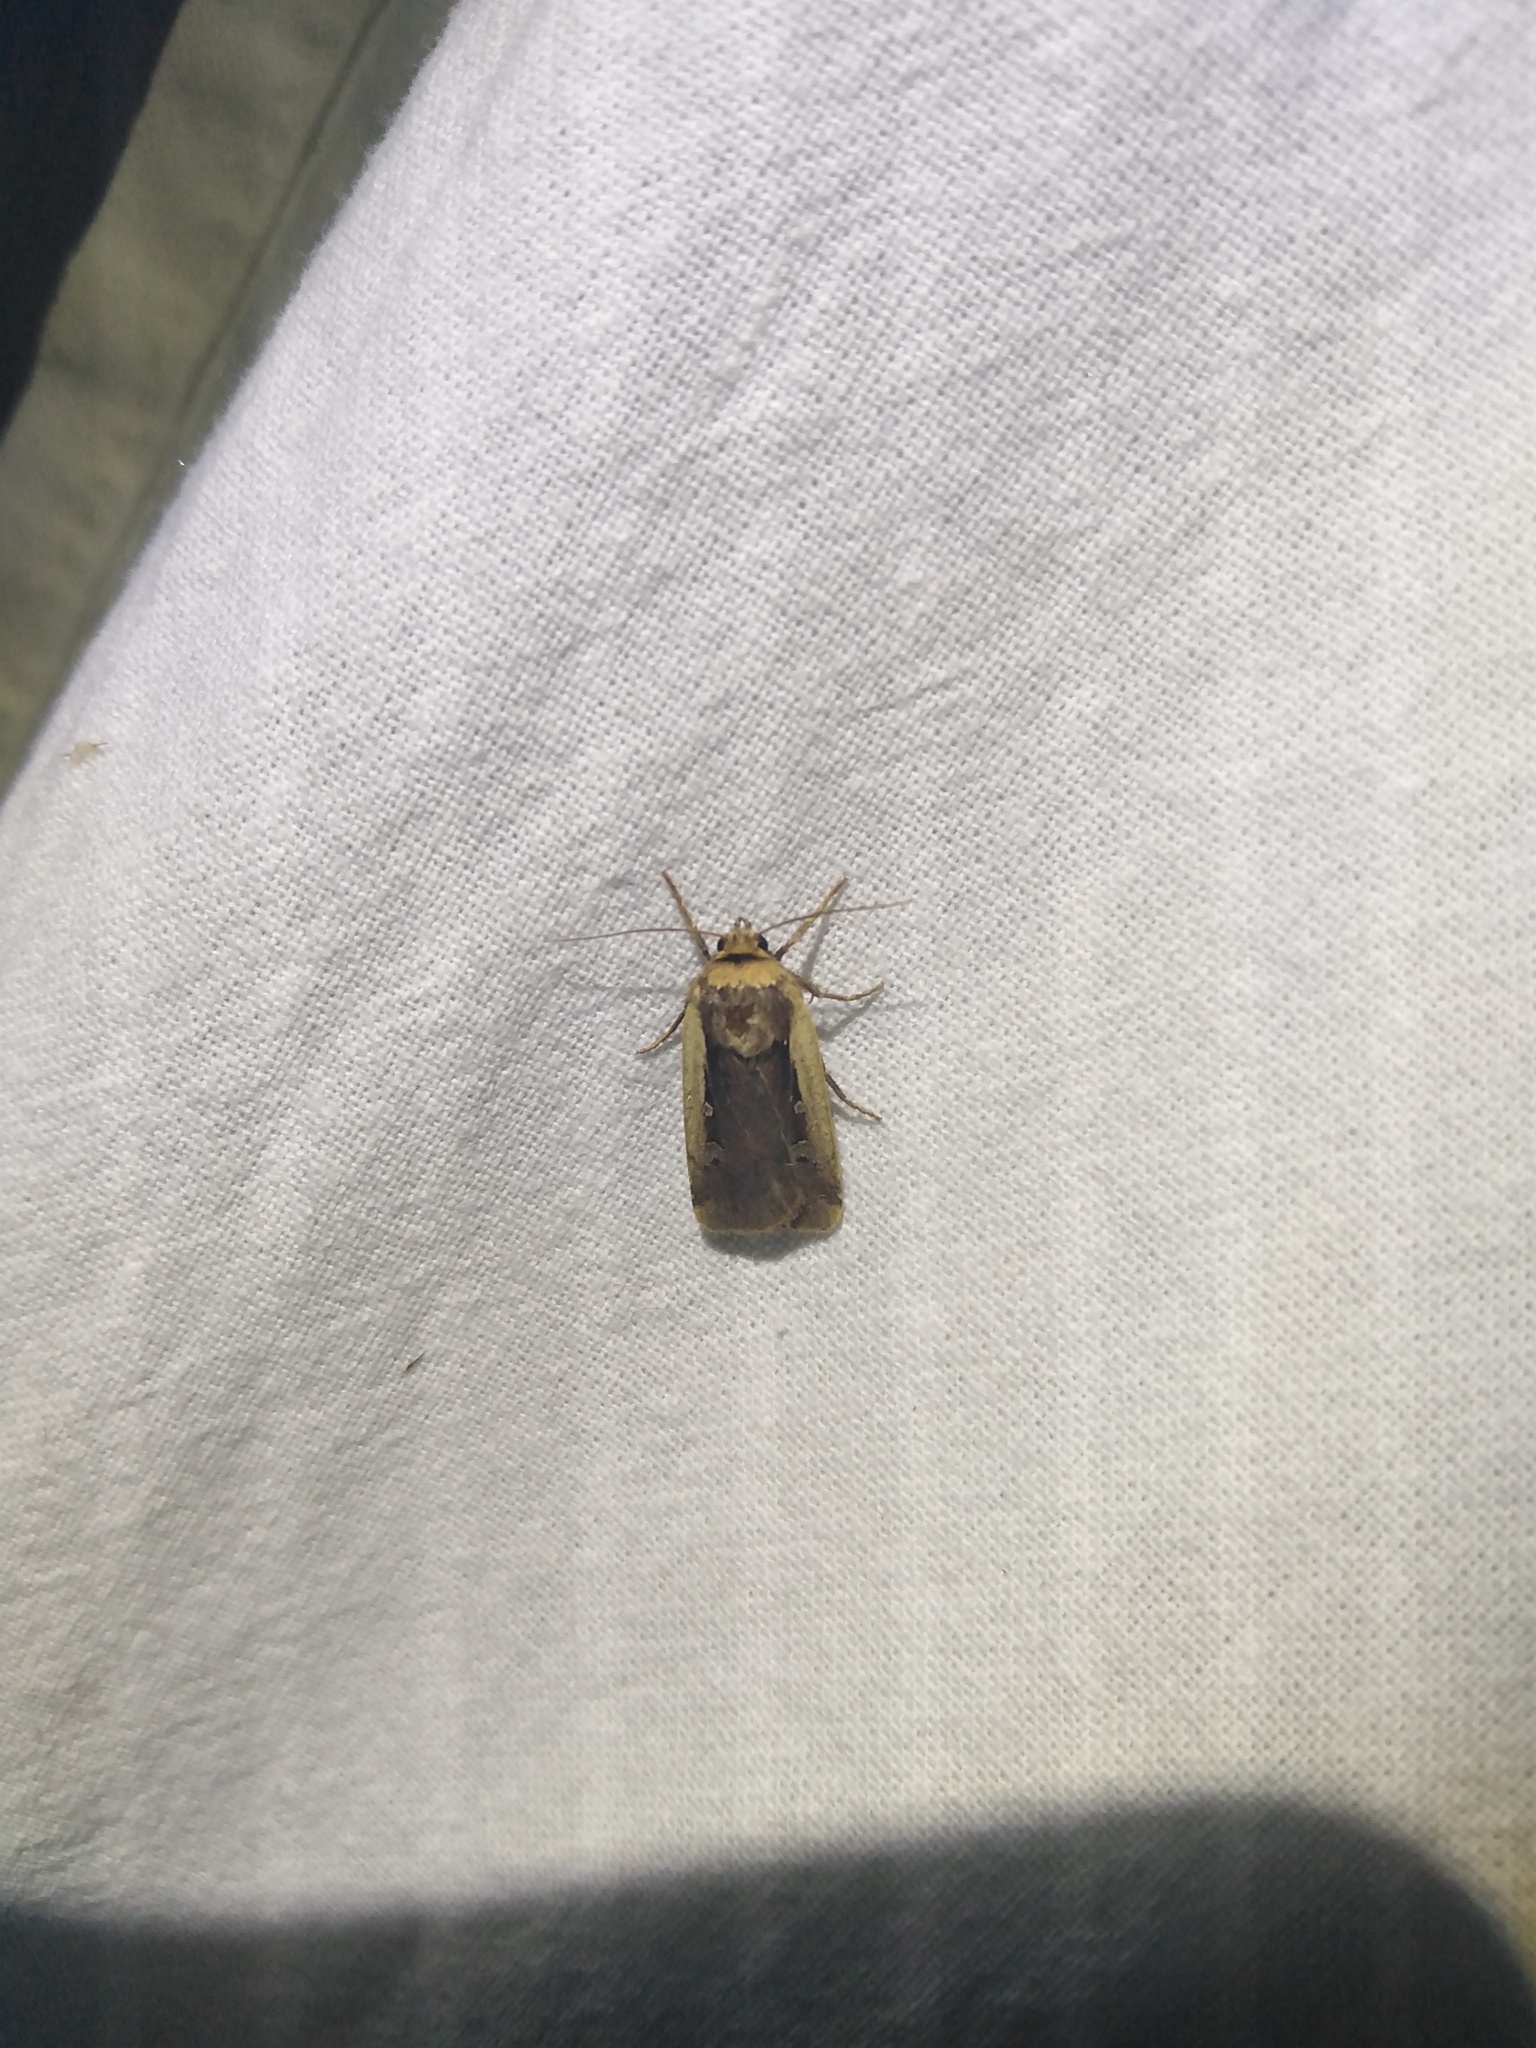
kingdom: Animalia
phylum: Arthropoda
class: Insecta
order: Lepidoptera
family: Noctuidae
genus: Ochropleura
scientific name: Ochropleura plecta
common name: Flame shoulder
